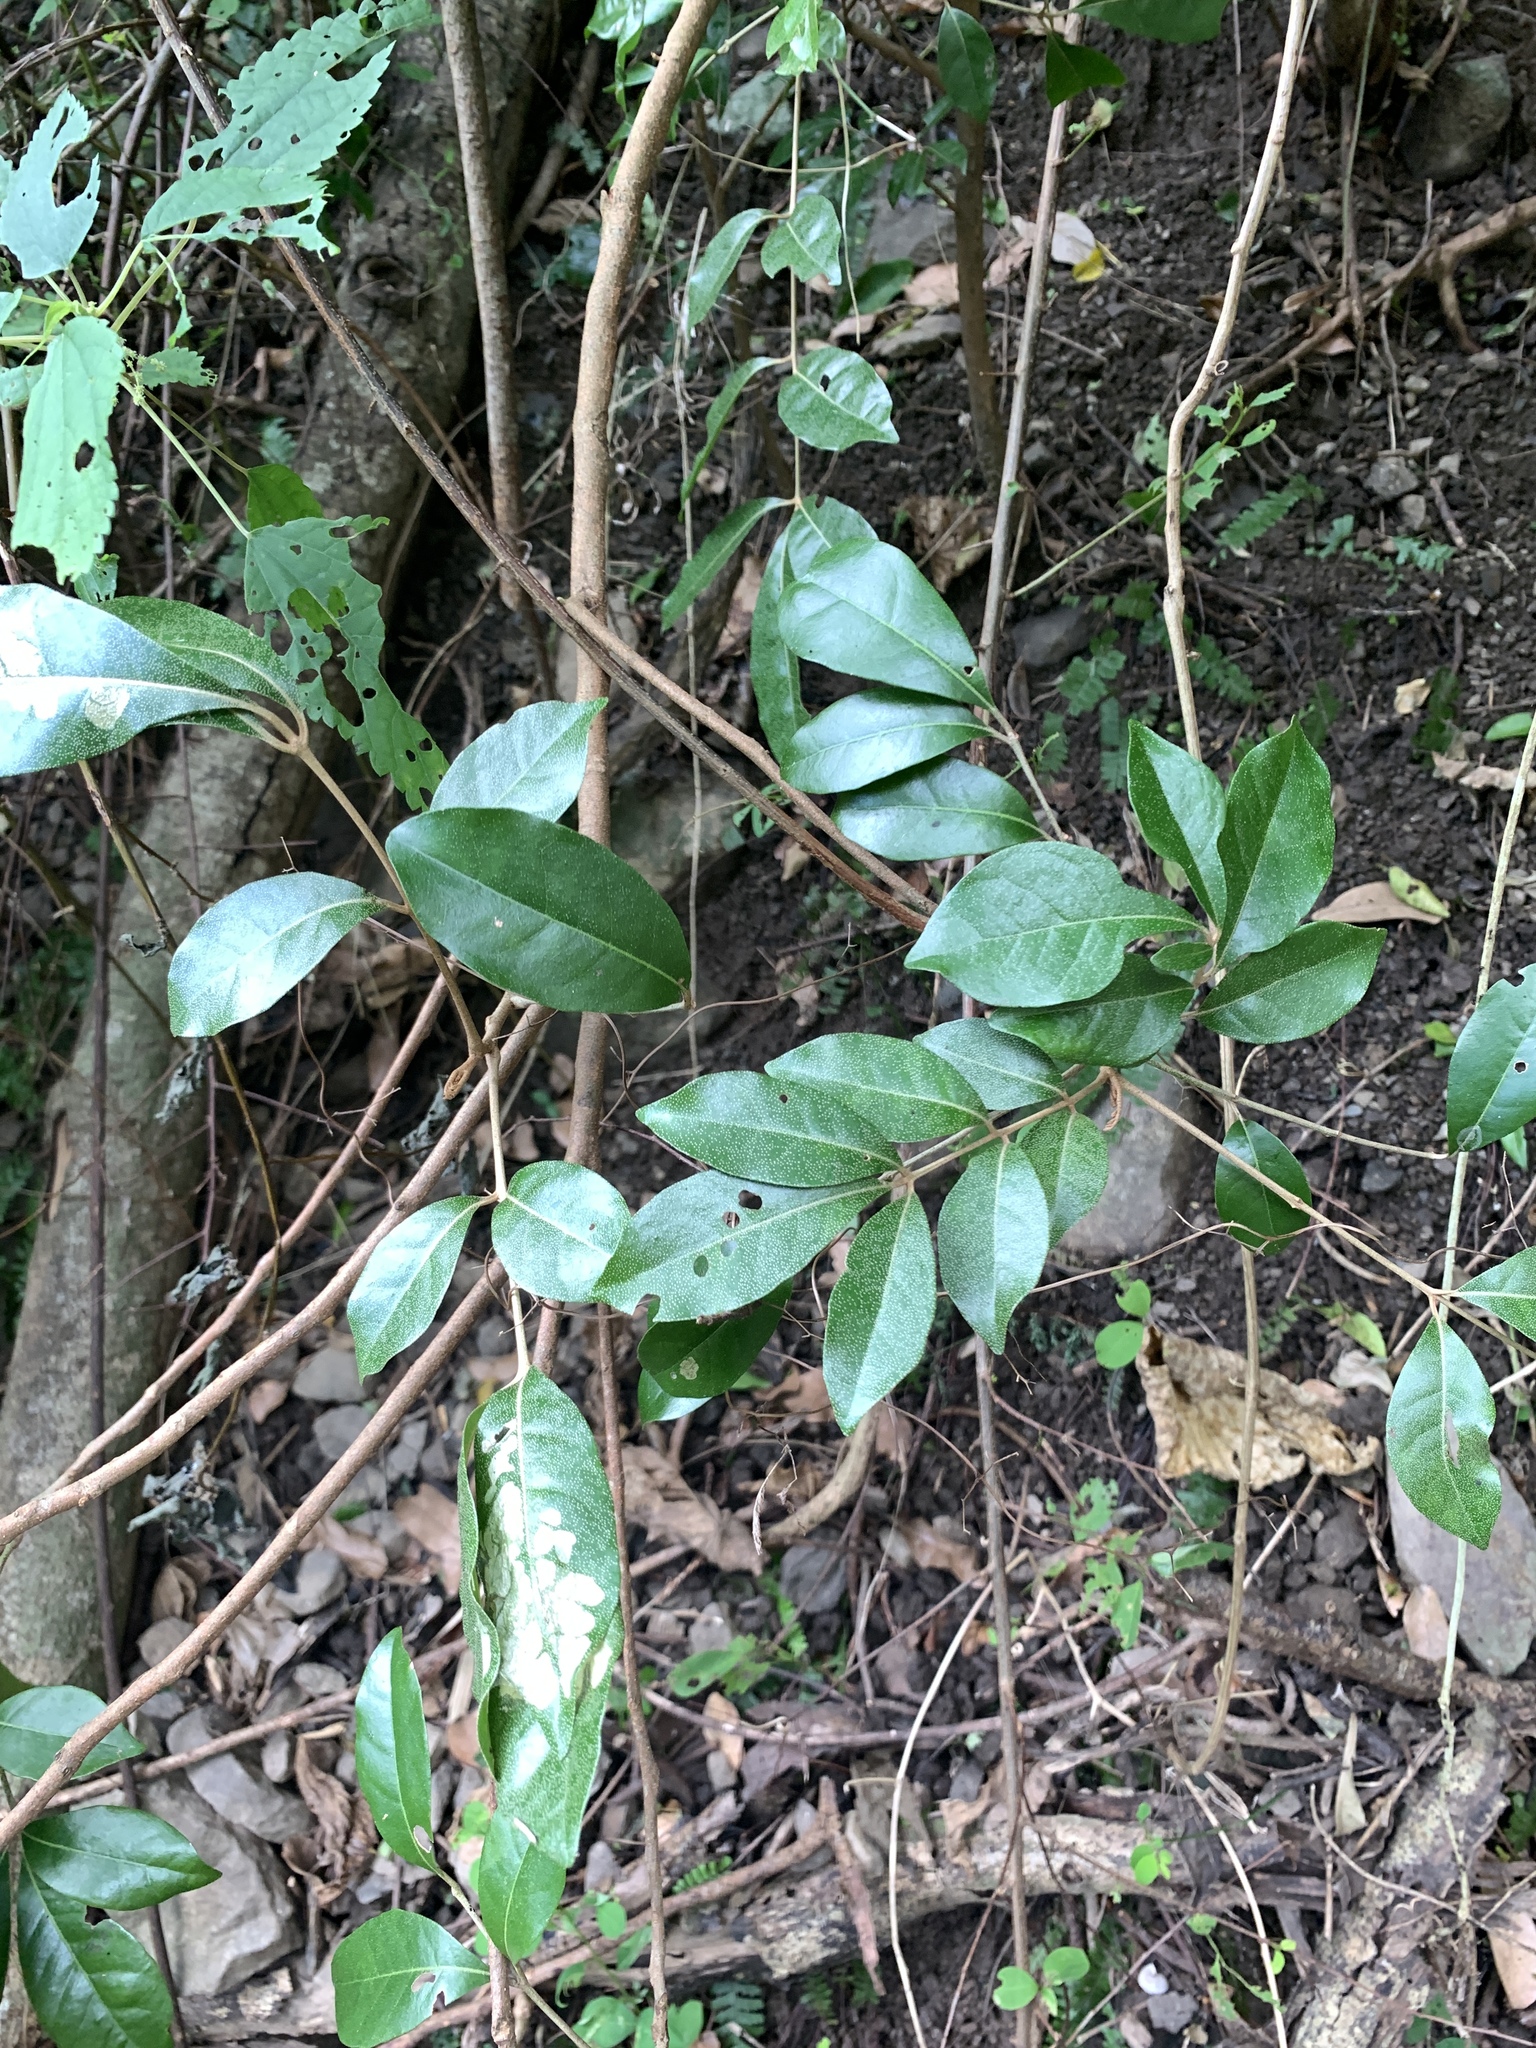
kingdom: Plantae
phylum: Tracheophyta
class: Magnoliopsida
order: Sapindales
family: Meliaceae
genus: Aglaia
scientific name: Aglaia elaeagnoidea
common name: Droopyleaf
